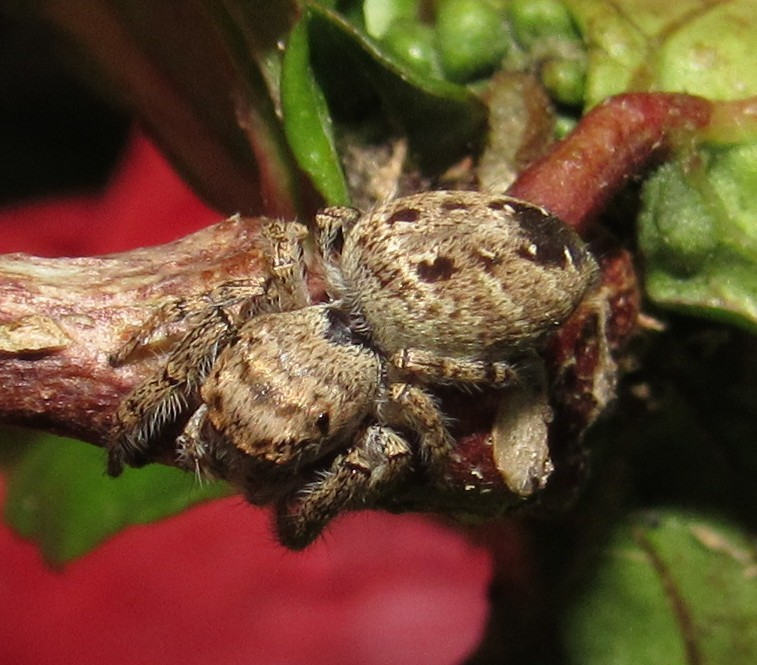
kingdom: Animalia
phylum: Arthropoda
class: Arachnida
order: Araneae
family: Salticidae
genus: Metaphidippus
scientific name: Metaphidippus albopilosus
